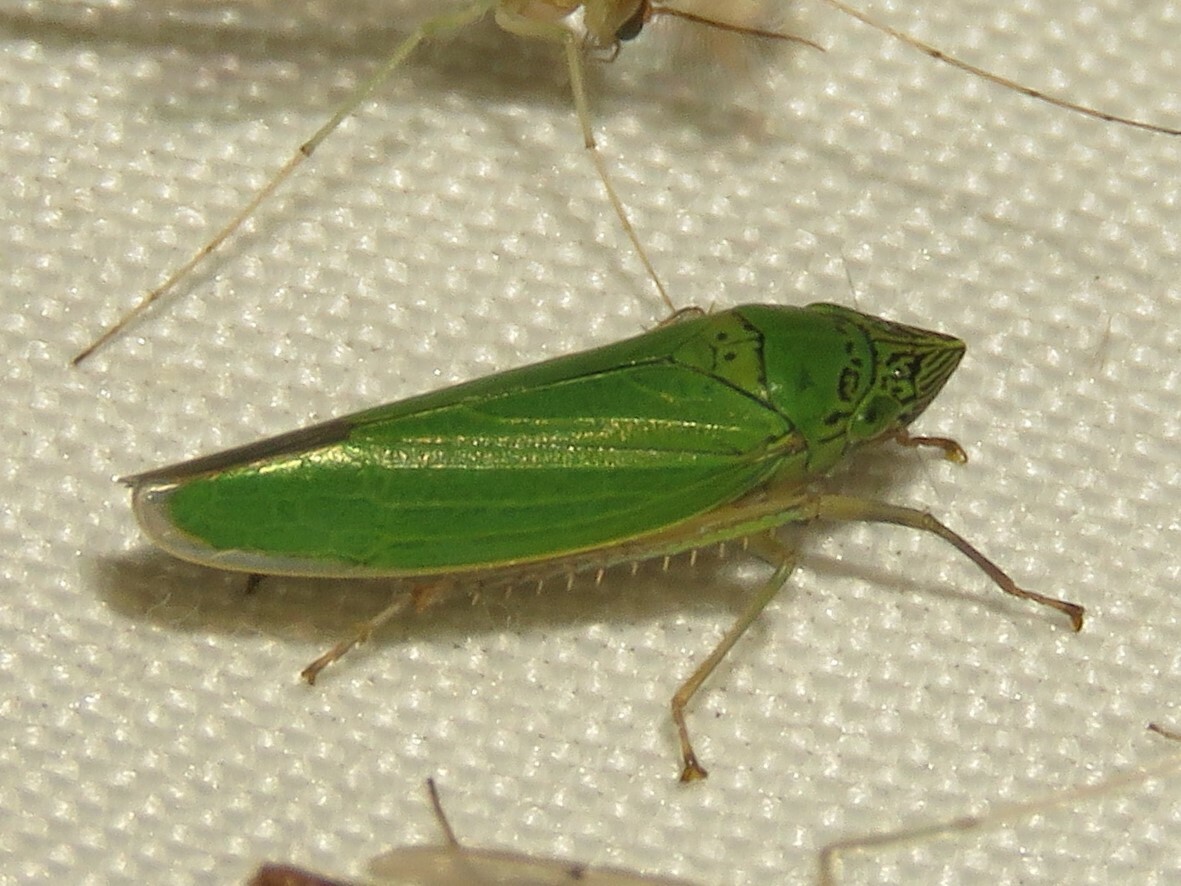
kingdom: Animalia
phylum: Arthropoda
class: Insecta
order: Hemiptera
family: Cicadellidae
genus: Draeculacephala
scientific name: Draeculacephala inscripta
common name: Leafhopper
